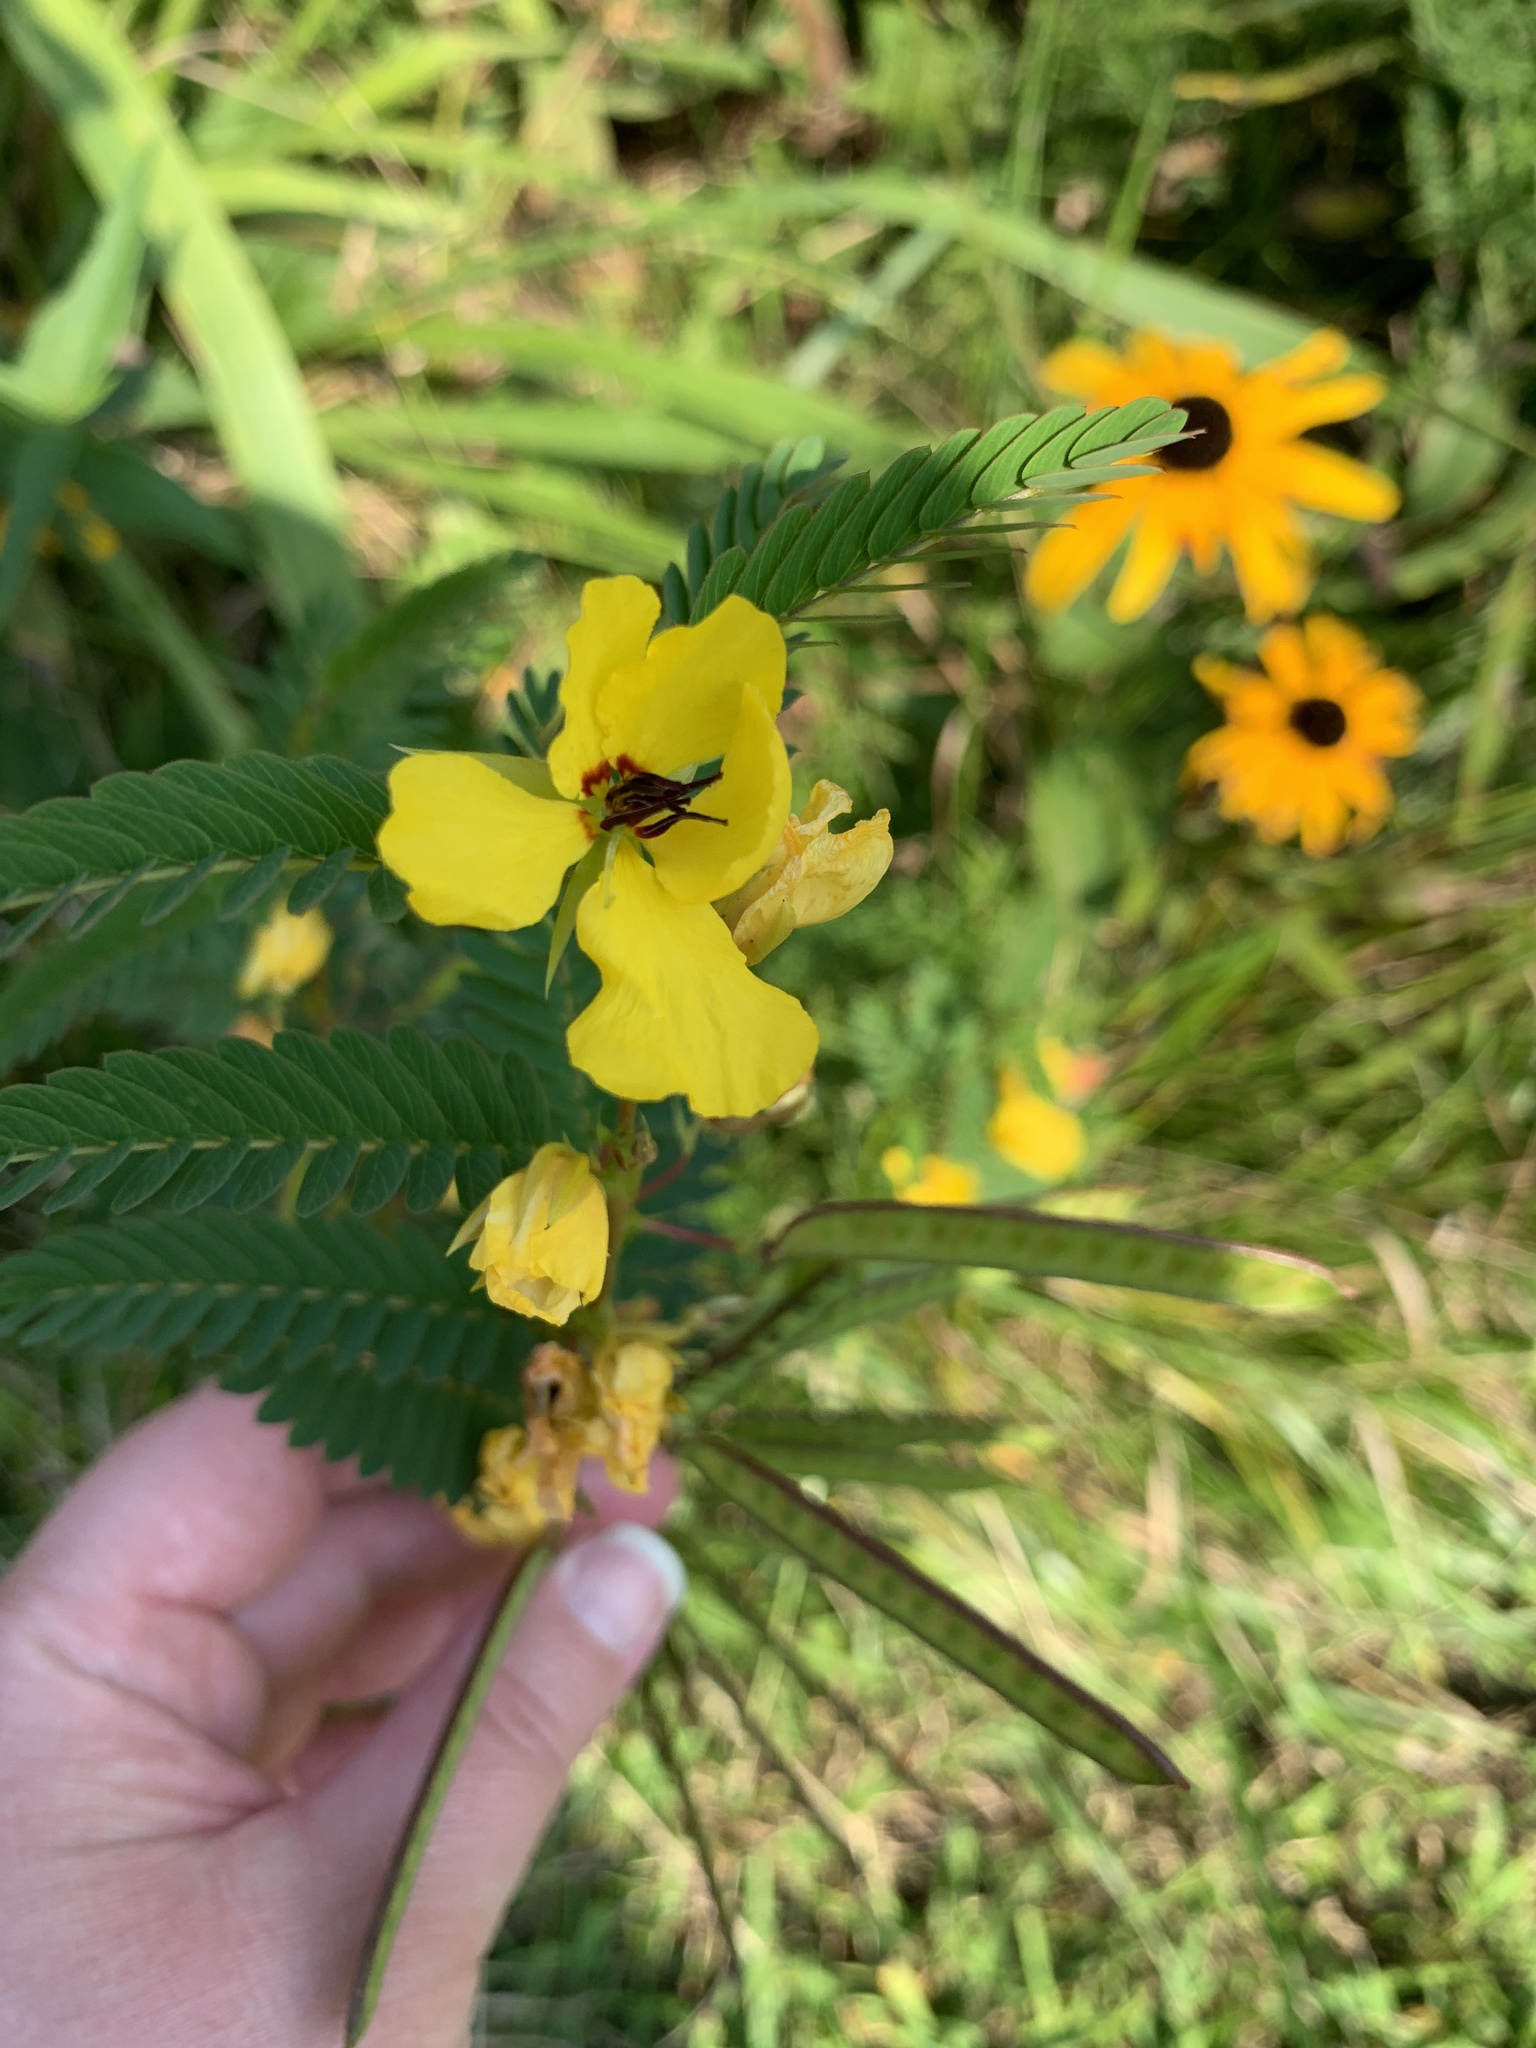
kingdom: Plantae
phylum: Tracheophyta
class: Magnoliopsida
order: Fabales
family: Fabaceae
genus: Chamaecrista
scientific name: Chamaecrista fasciculata
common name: Golden cassia
